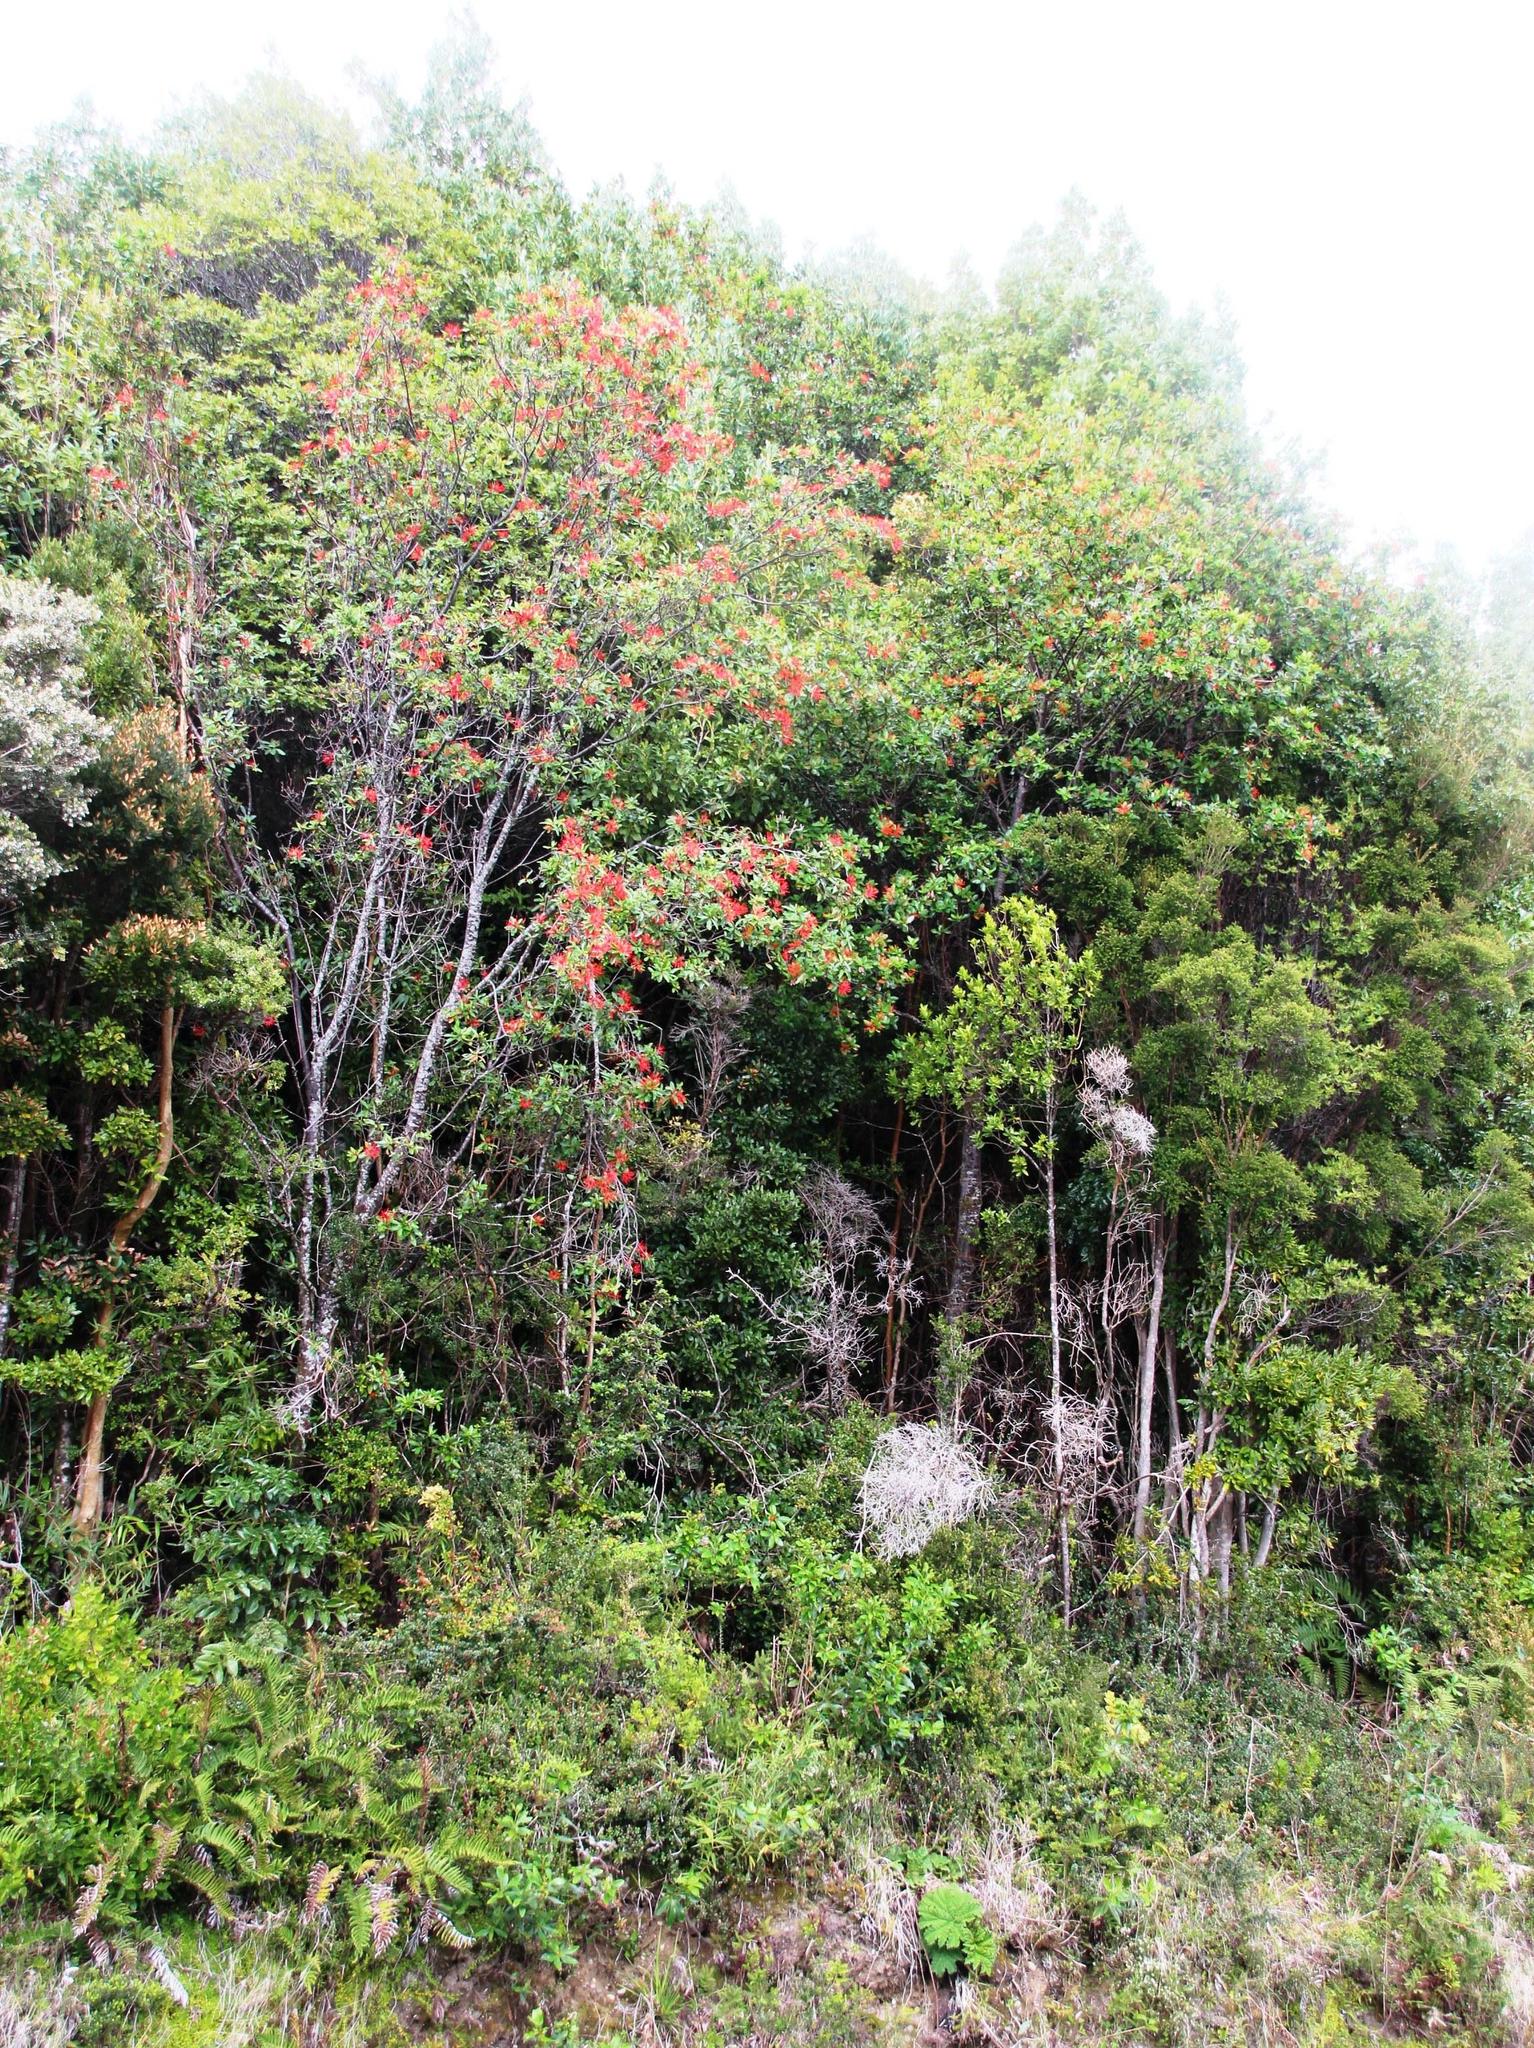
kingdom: Plantae
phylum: Tracheophyta
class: Magnoliopsida
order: Proteales
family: Proteaceae
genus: Embothrium
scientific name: Embothrium coccineum
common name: Chilean firebush
